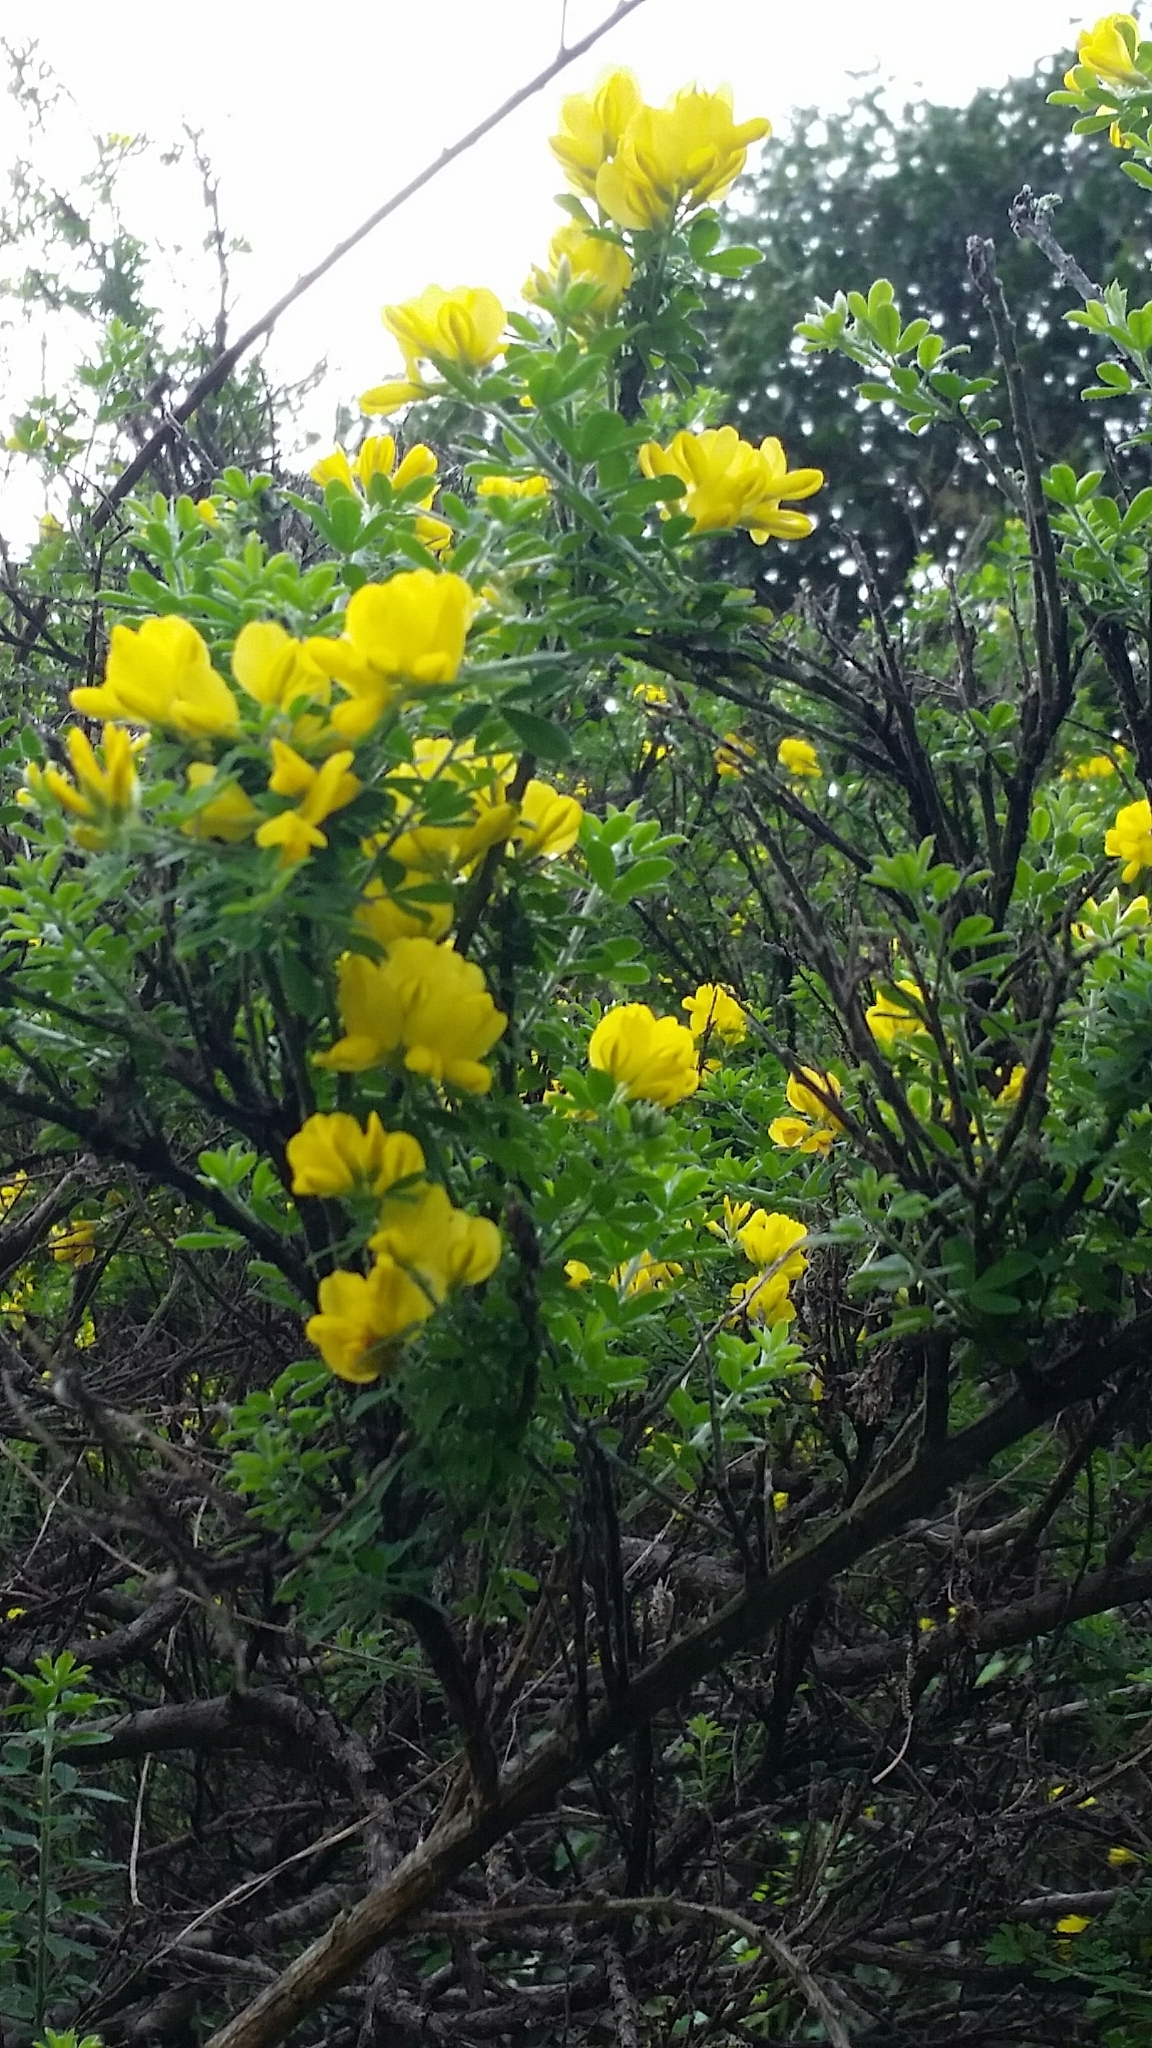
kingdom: Plantae
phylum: Tracheophyta
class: Magnoliopsida
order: Fabales
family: Fabaceae
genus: Genista
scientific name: Genista monspessulana
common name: Montpellier broom
